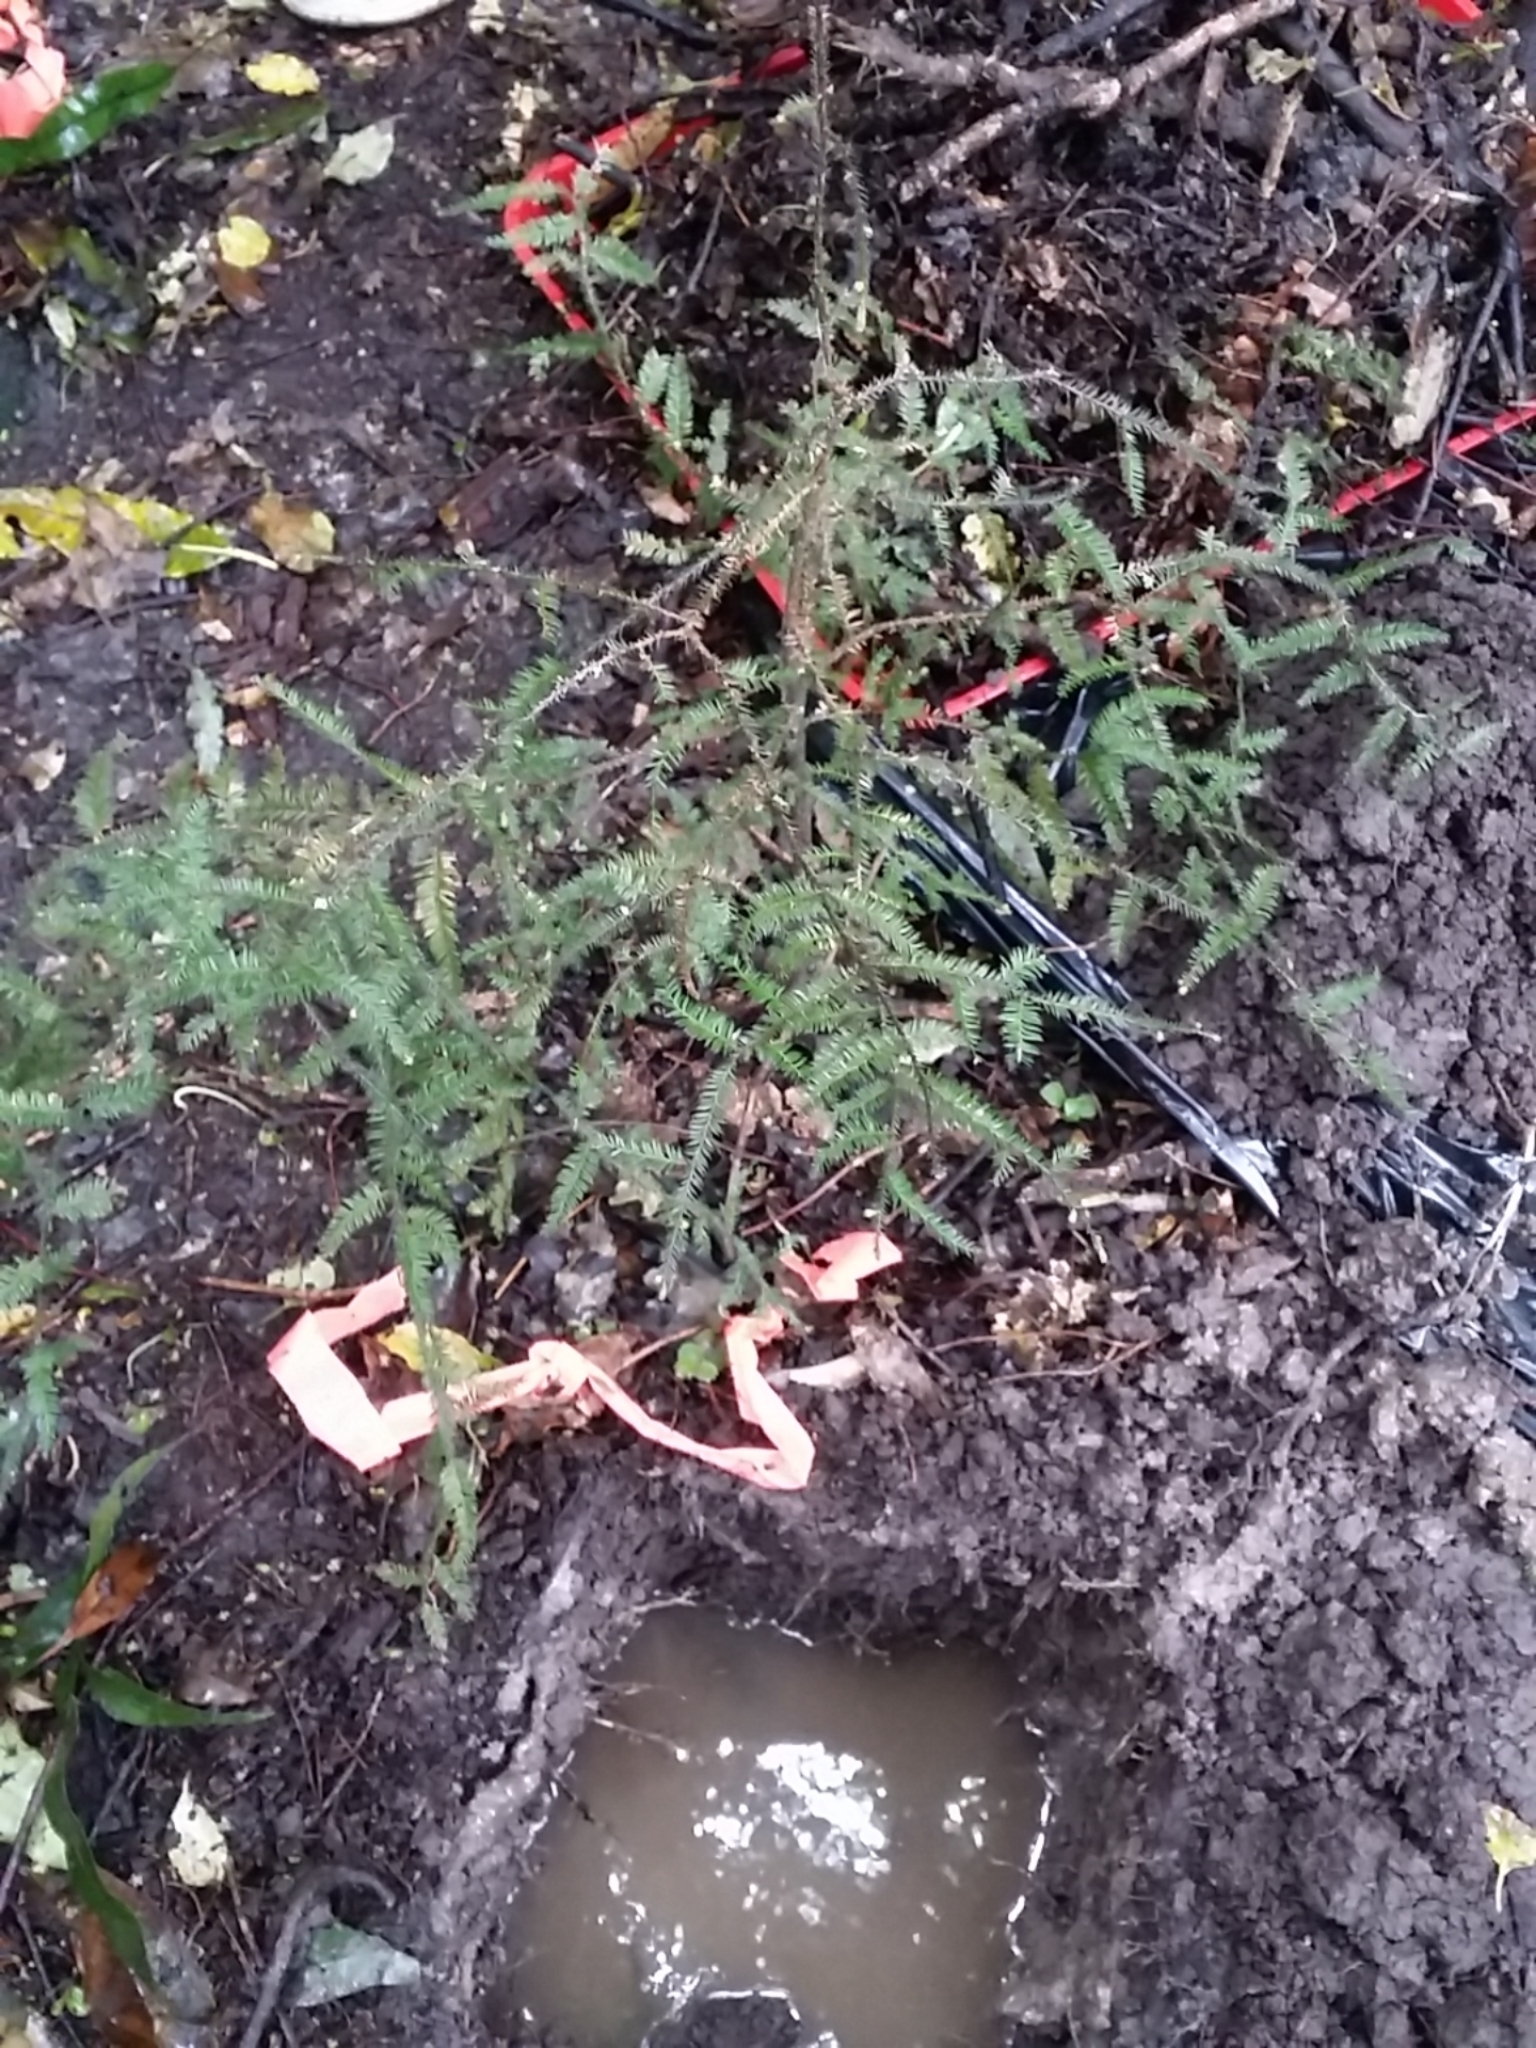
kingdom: Plantae
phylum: Tracheophyta
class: Pinopsida
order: Pinales
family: Podocarpaceae
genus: Dacrycarpus
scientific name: Dacrycarpus dacrydioides
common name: White pine
